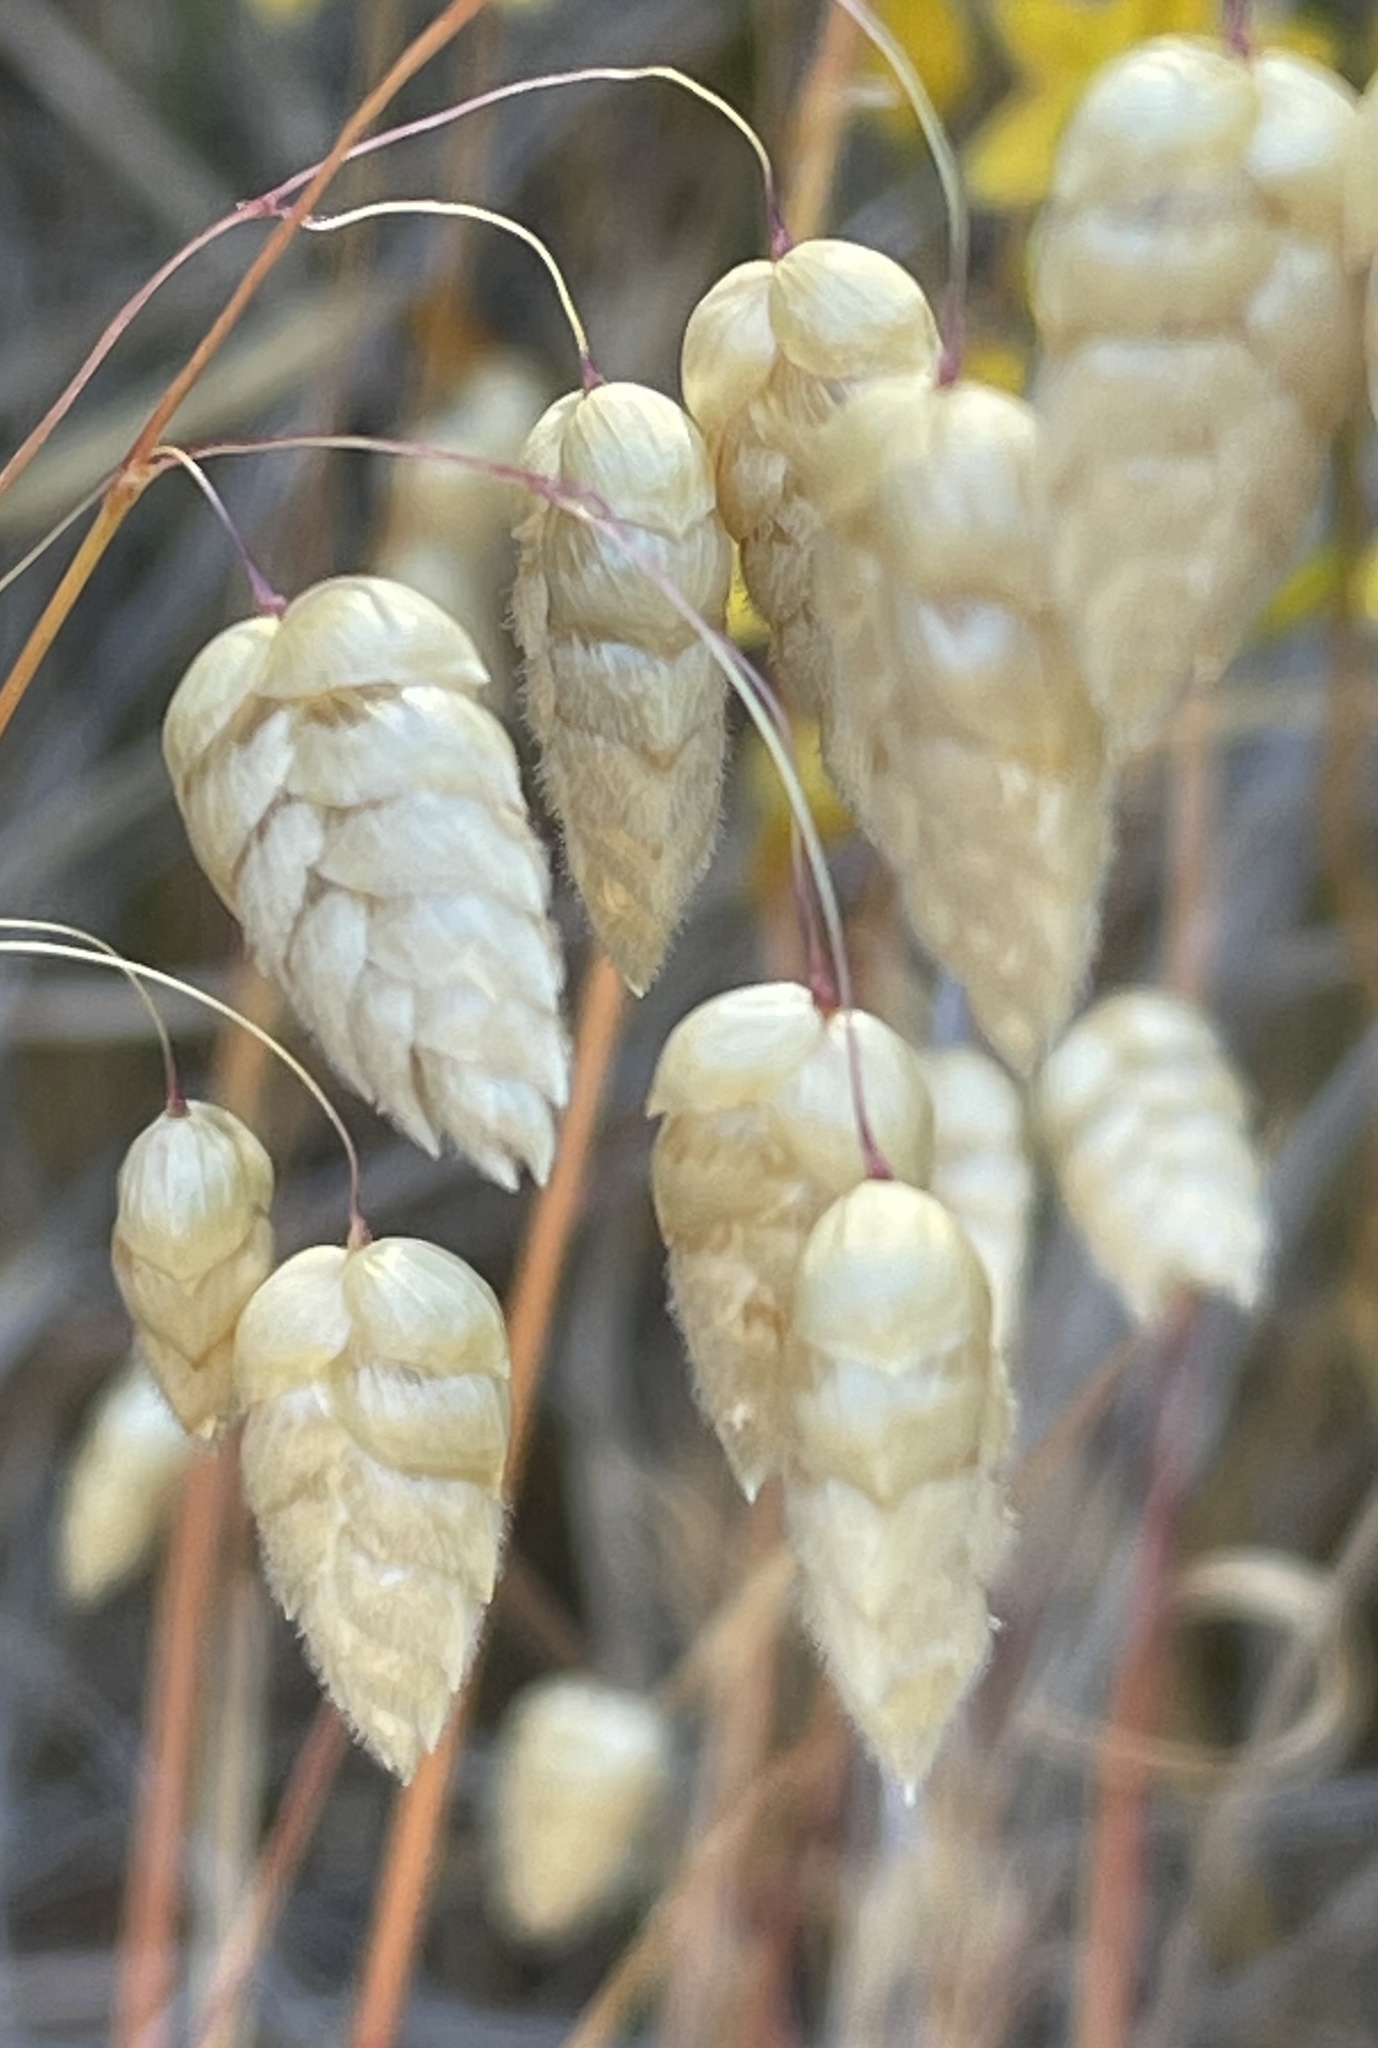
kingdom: Plantae
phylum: Tracheophyta
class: Liliopsida
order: Poales
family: Poaceae
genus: Briza
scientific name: Briza maxima
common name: Big quakinggrass
